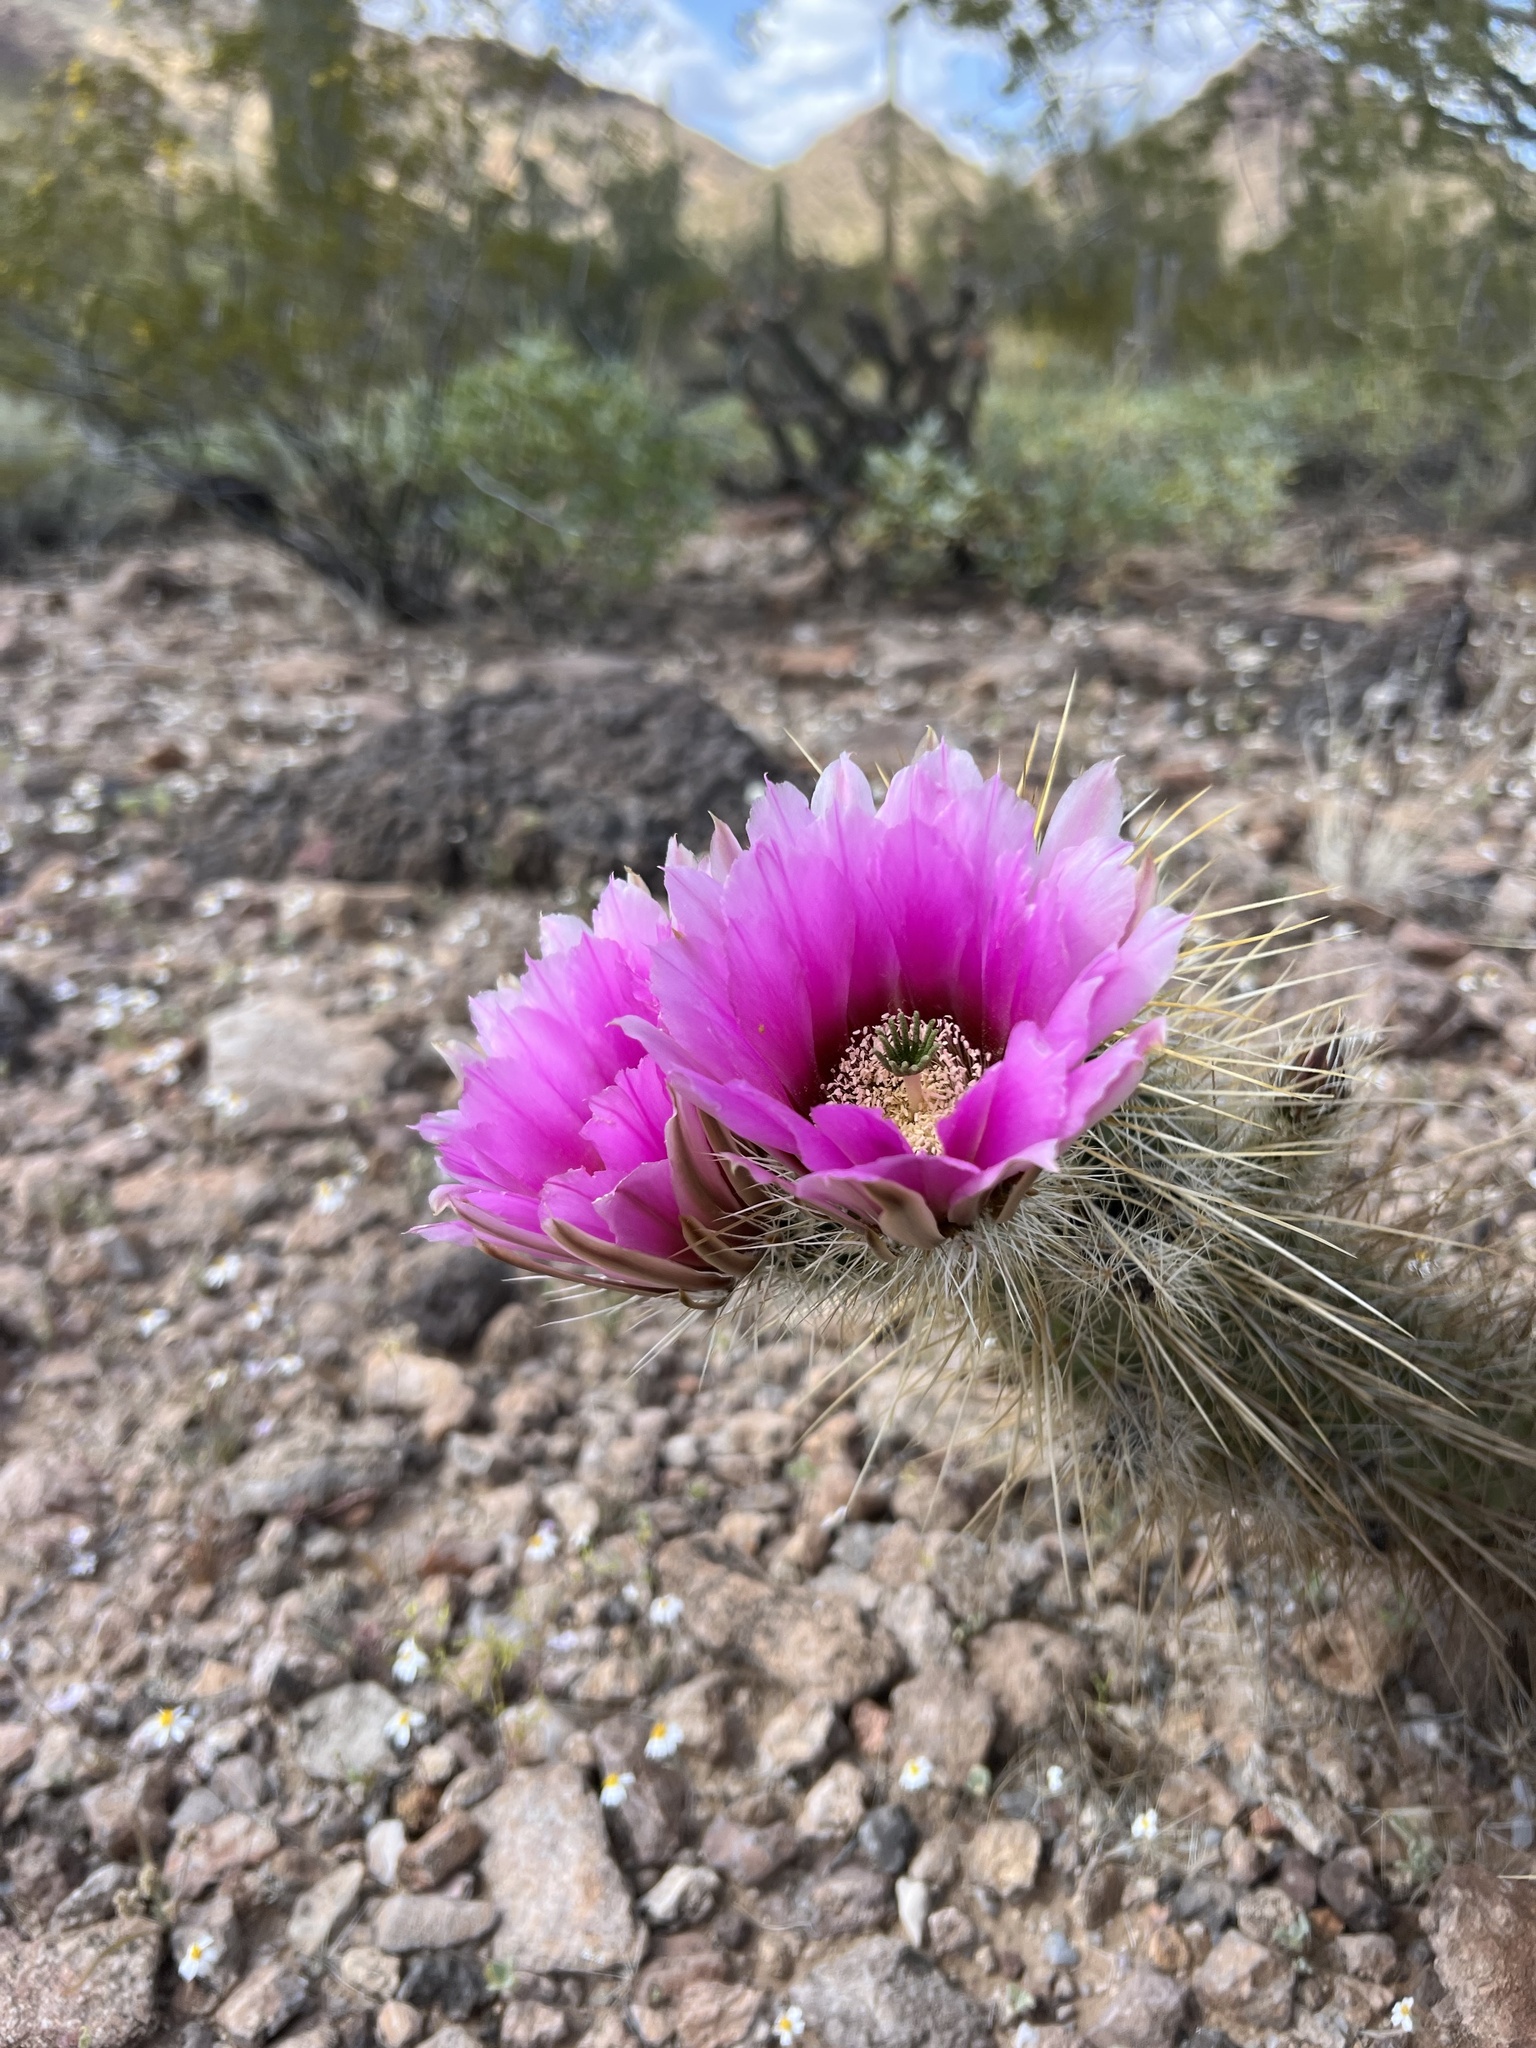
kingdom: Plantae
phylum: Tracheophyta
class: Magnoliopsida
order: Caryophyllales
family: Cactaceae
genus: Echinocereus
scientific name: Echinocereus engelmannii
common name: Engelmann's hedgehog cactus
